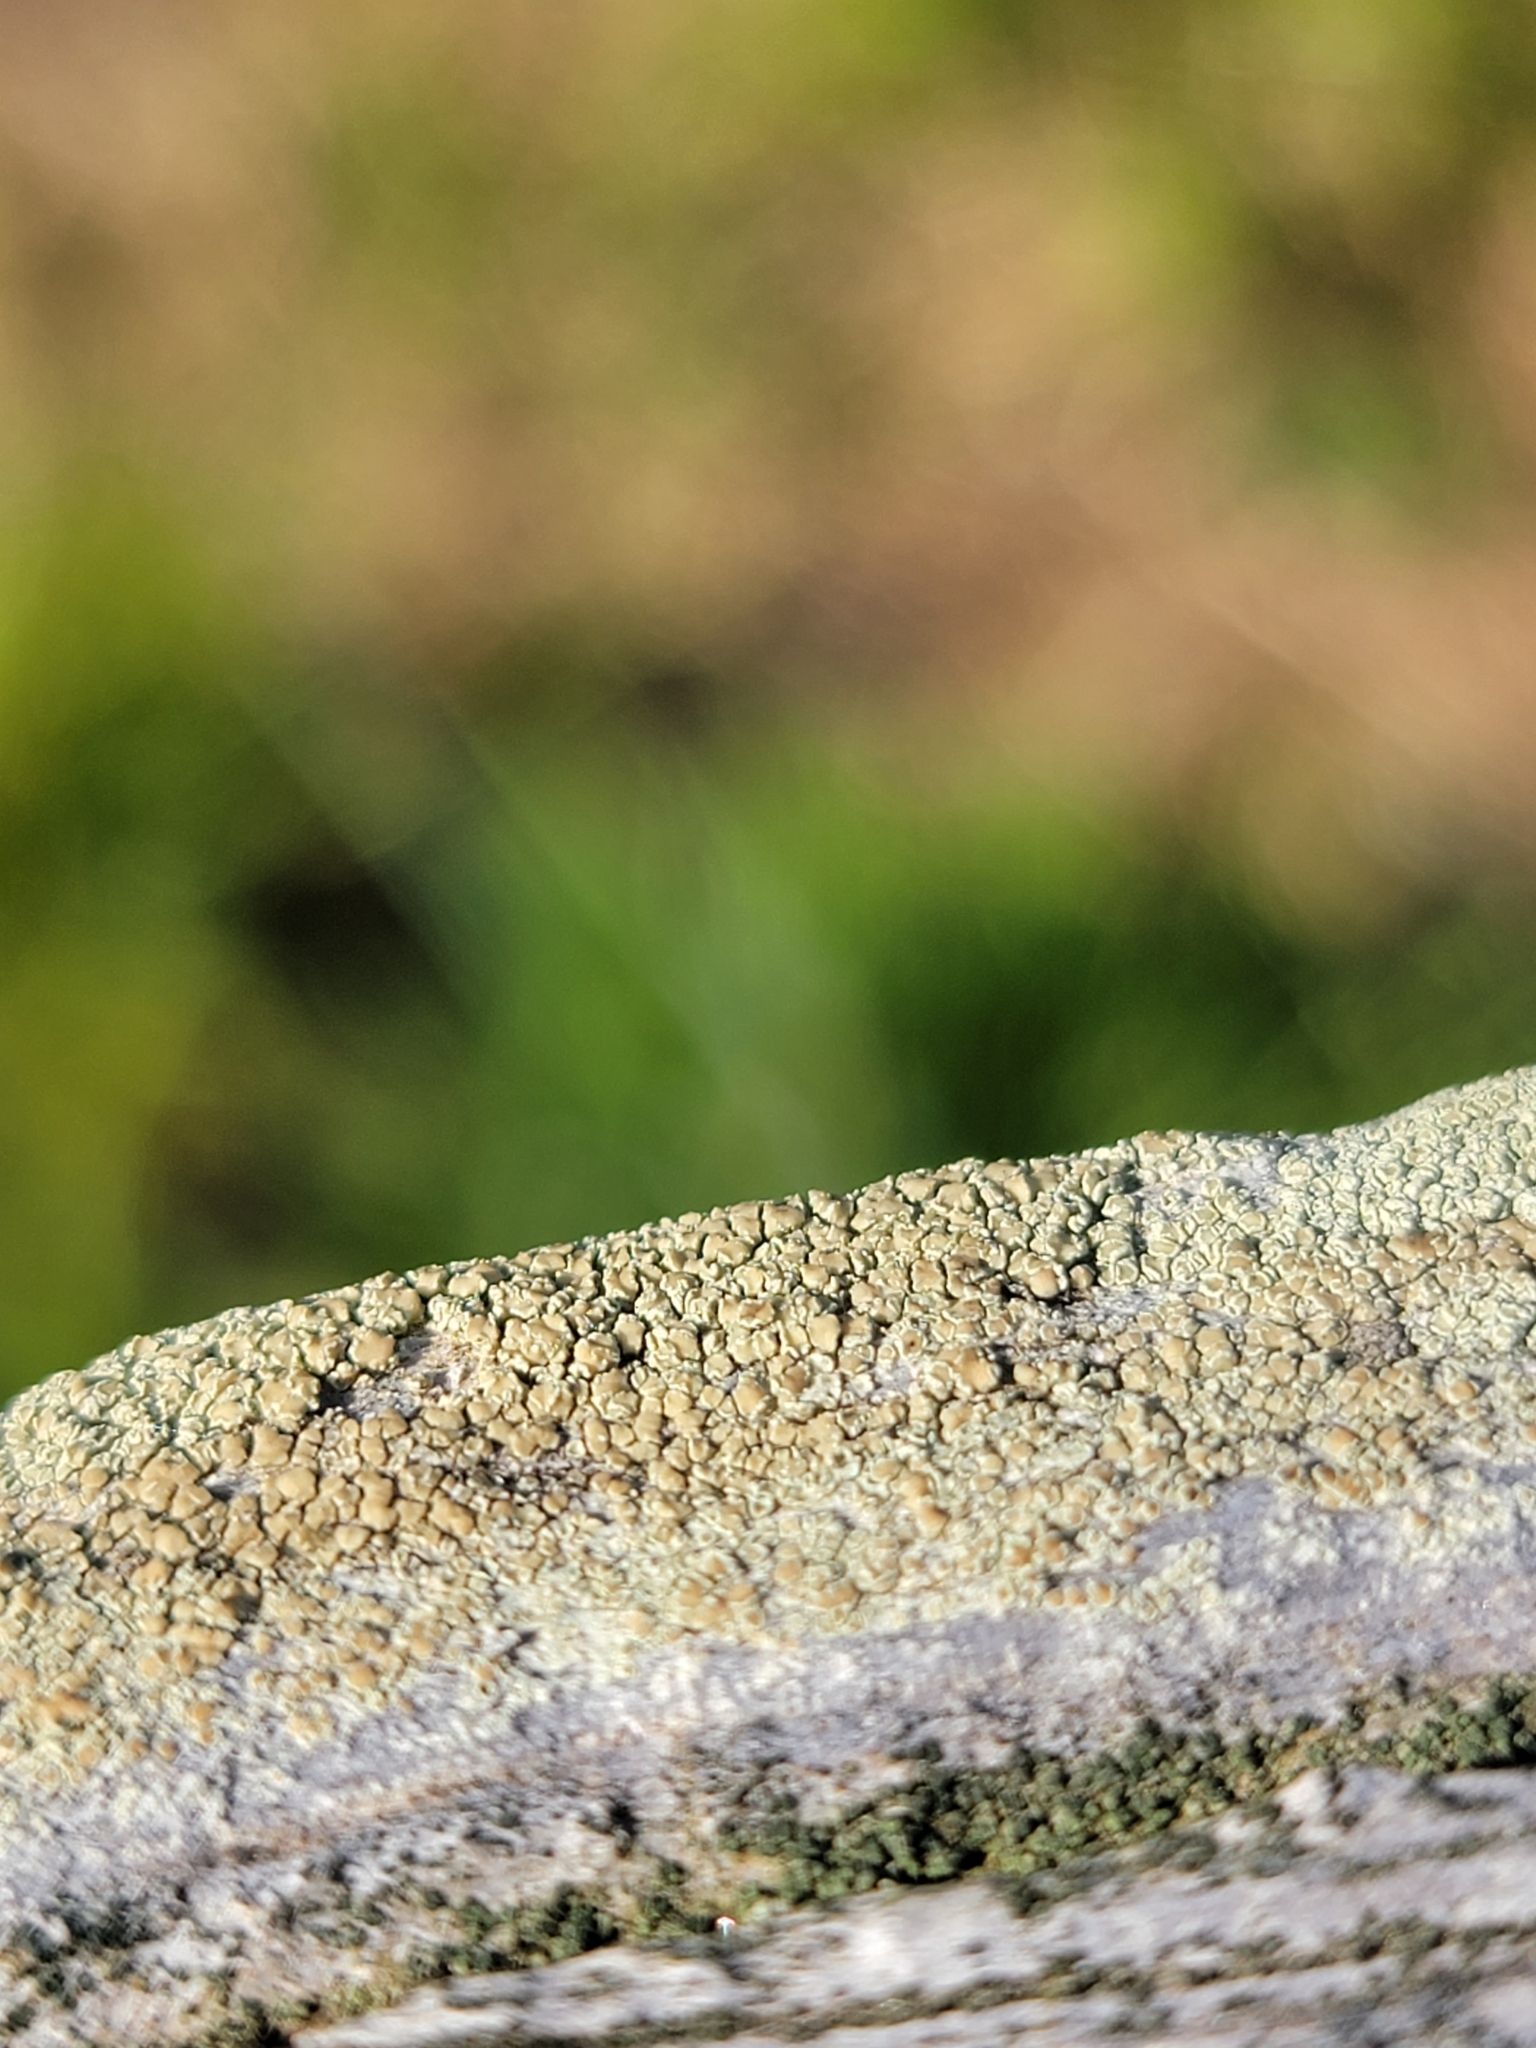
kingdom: Fungi
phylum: Ascomycota
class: Lecanoromycetes
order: Lecanorales
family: Lecanoraceae
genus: Lecanora
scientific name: Lecanora strobilina
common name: Mealy rim-lichen
